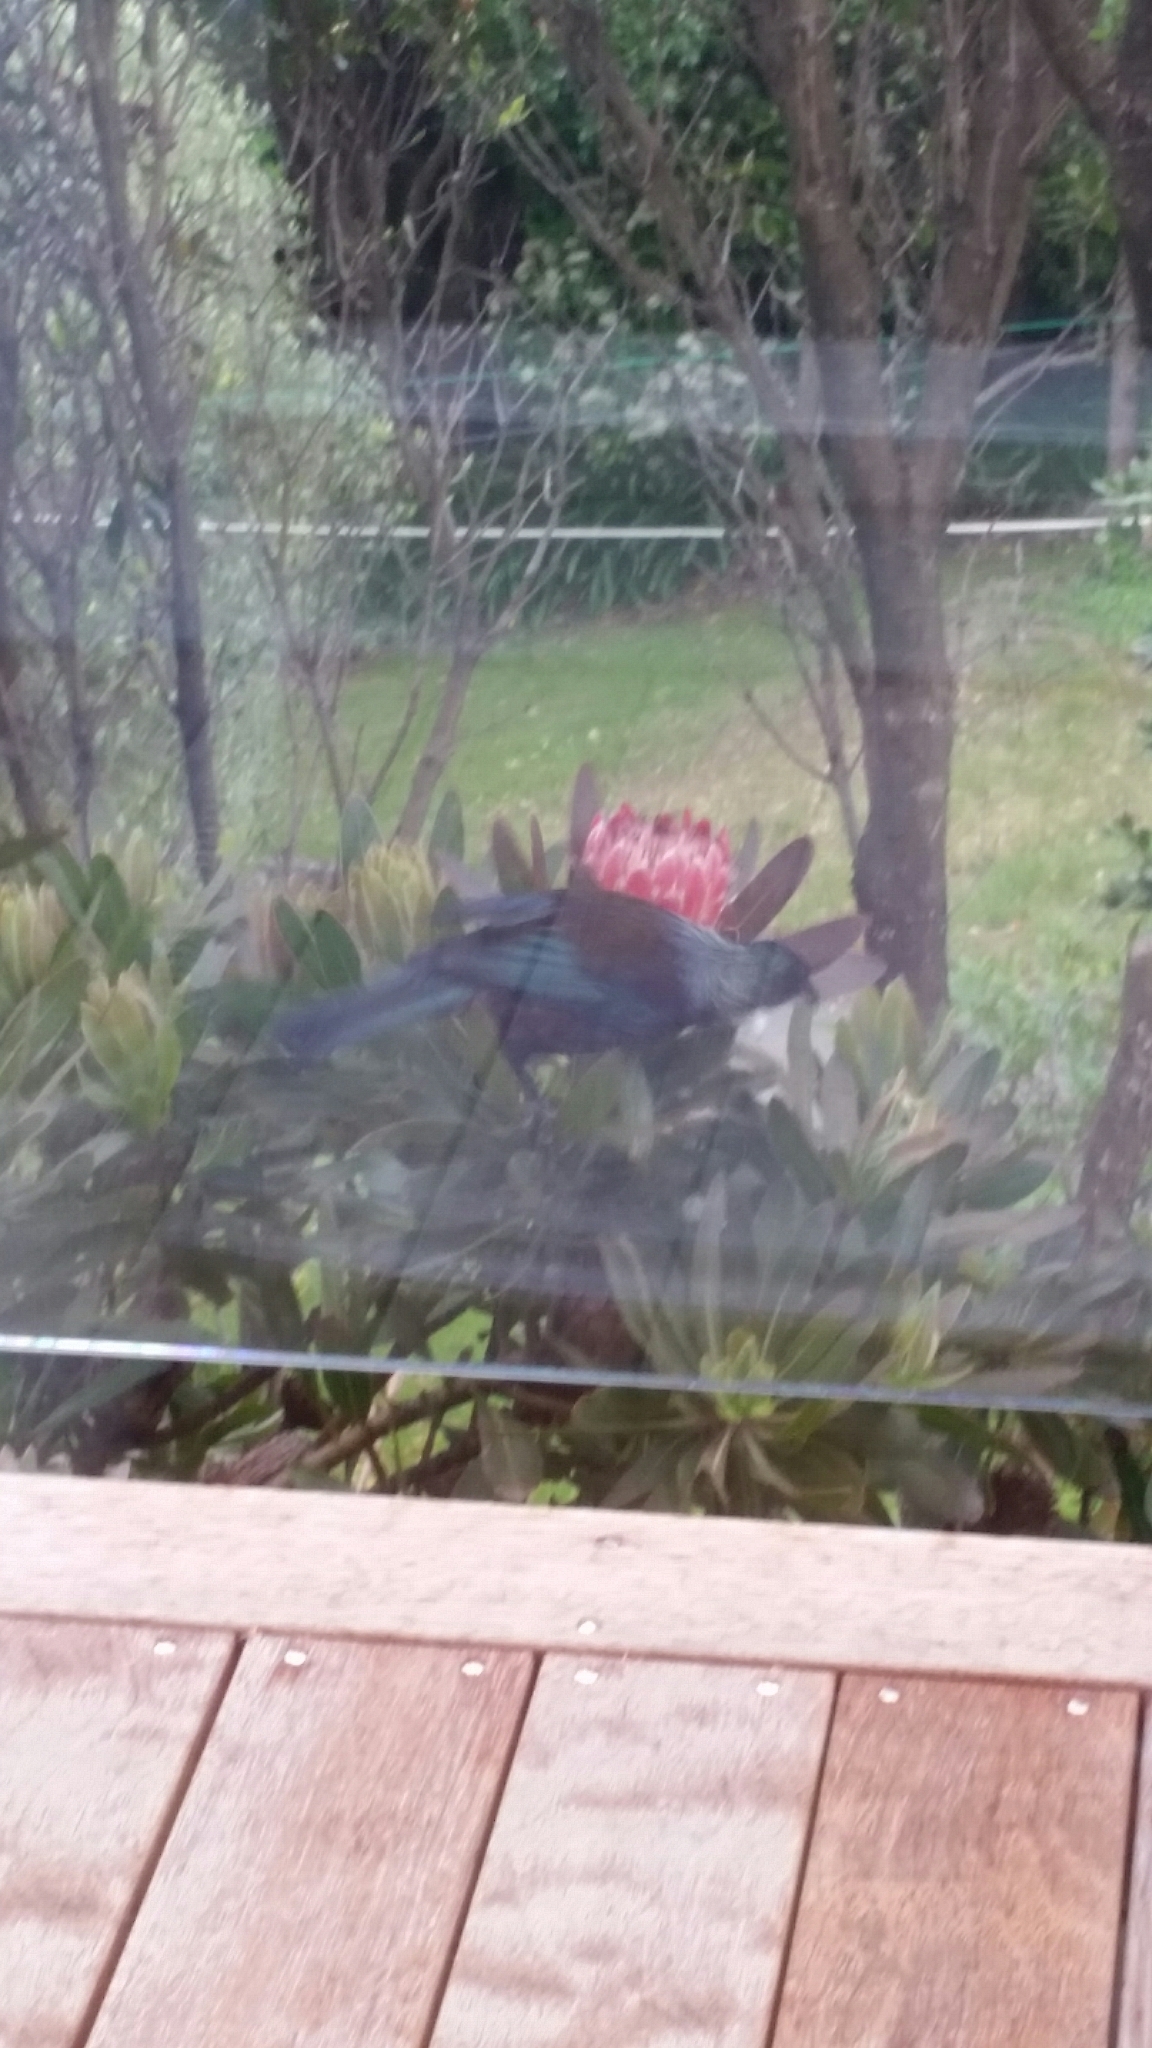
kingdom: Animalia
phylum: Chordata
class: Aves
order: Passeriformes
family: Meliphagidae
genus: Prosthemadera
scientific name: Prosthemadera novaeseelandiae
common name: Tui
